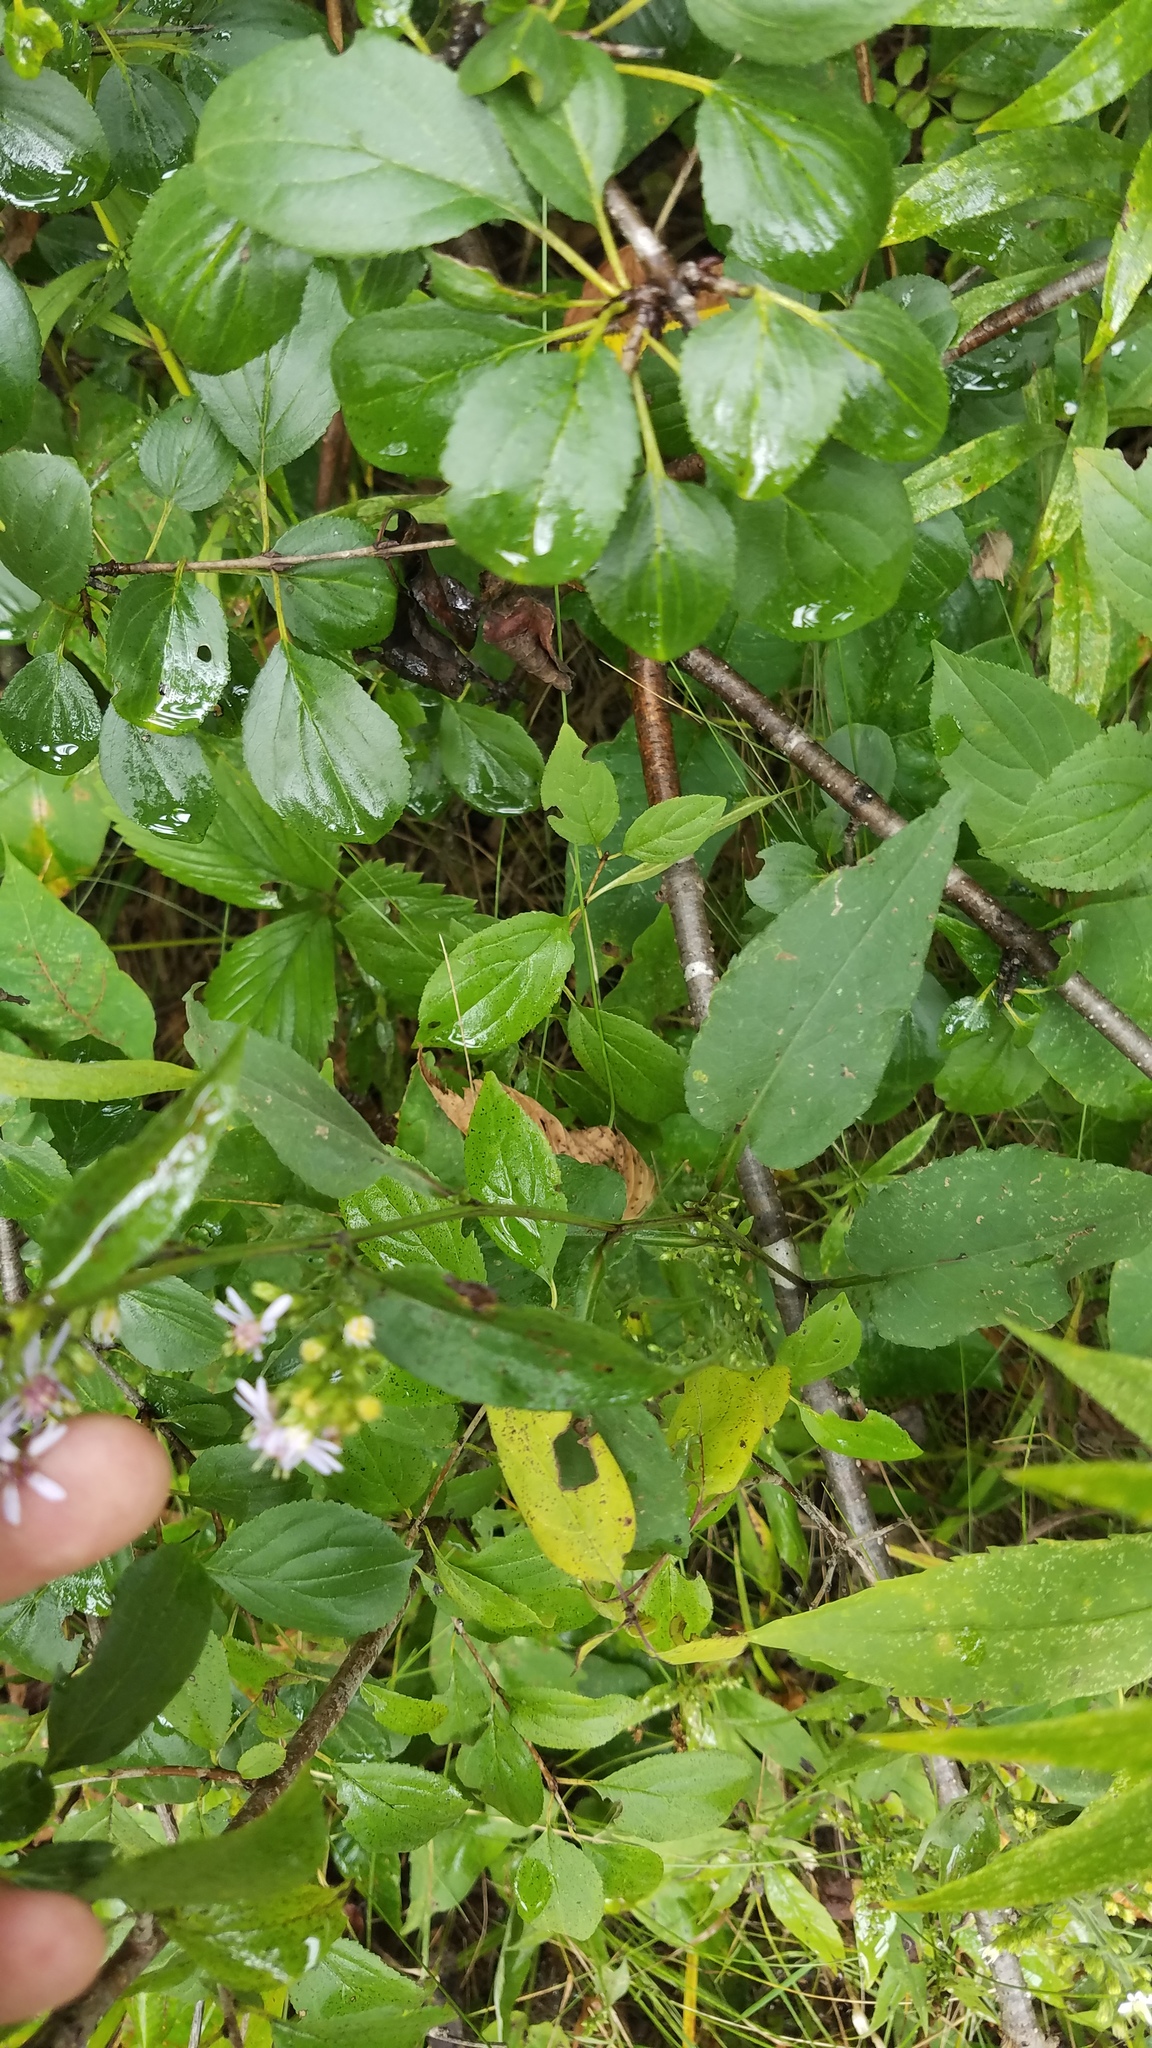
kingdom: Plantae
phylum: Tracheophyta
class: Magnoliopsida
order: Asterales
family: Asteraceae
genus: Symphyotrichum
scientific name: Symphyotrichum urophyllum
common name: Arrow-leaved aster
